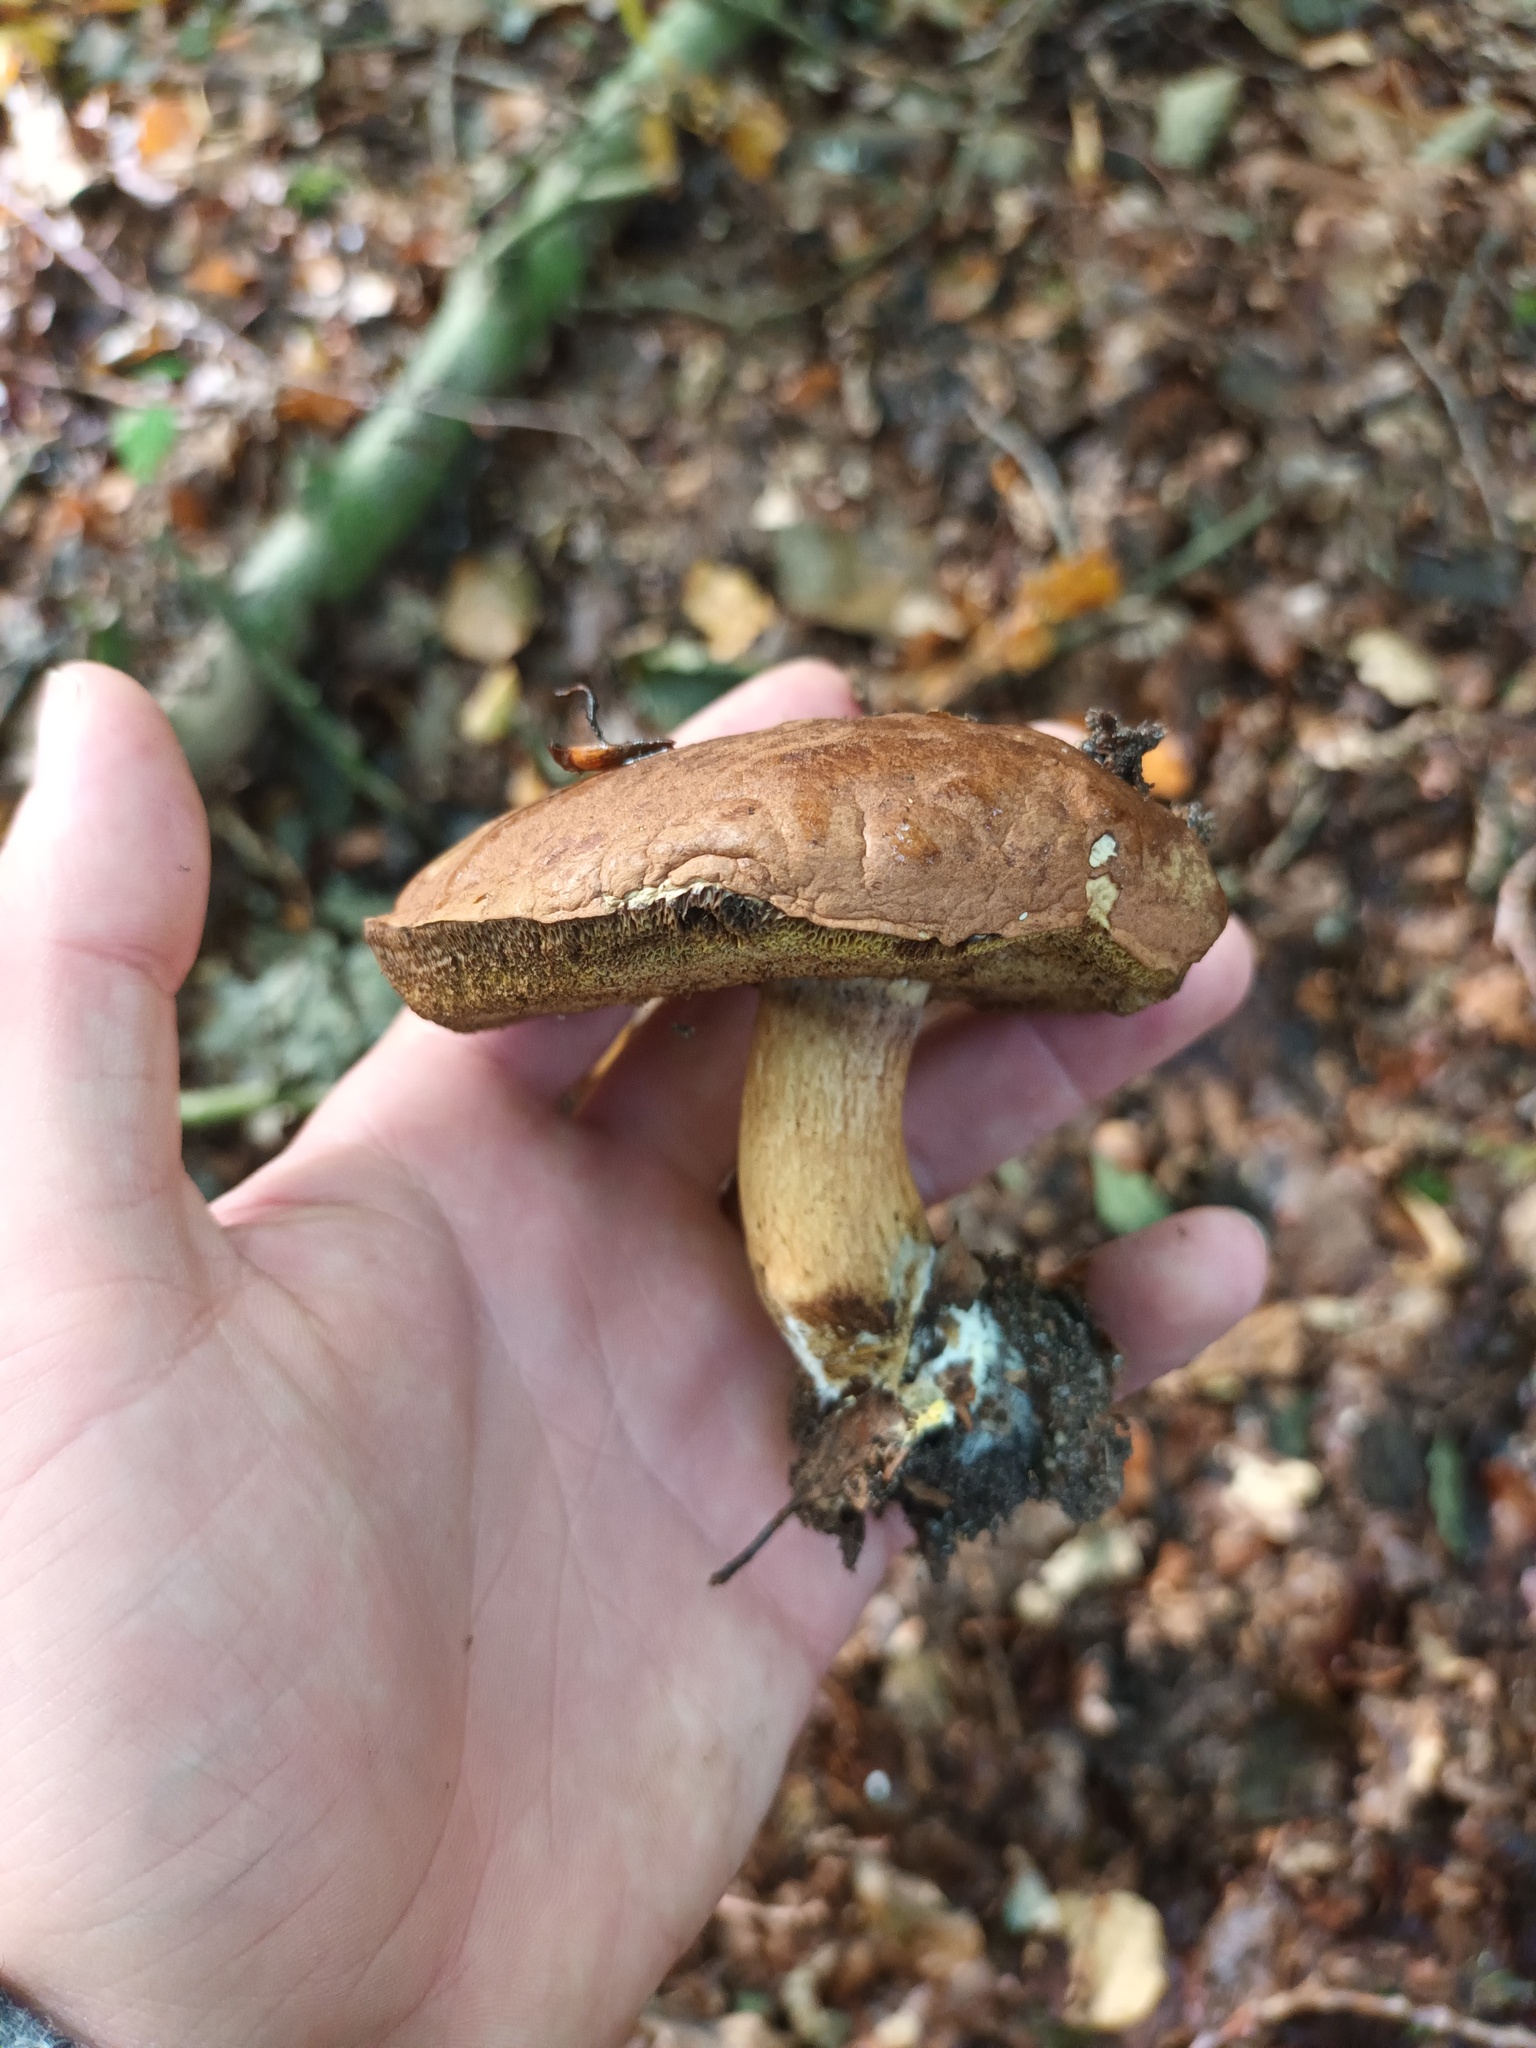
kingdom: Fungi
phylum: Basidiomycota
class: Agaricomycetes
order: Boletales
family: Boletaceae
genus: Imleria
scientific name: Imleria badia
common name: Bay bolete
